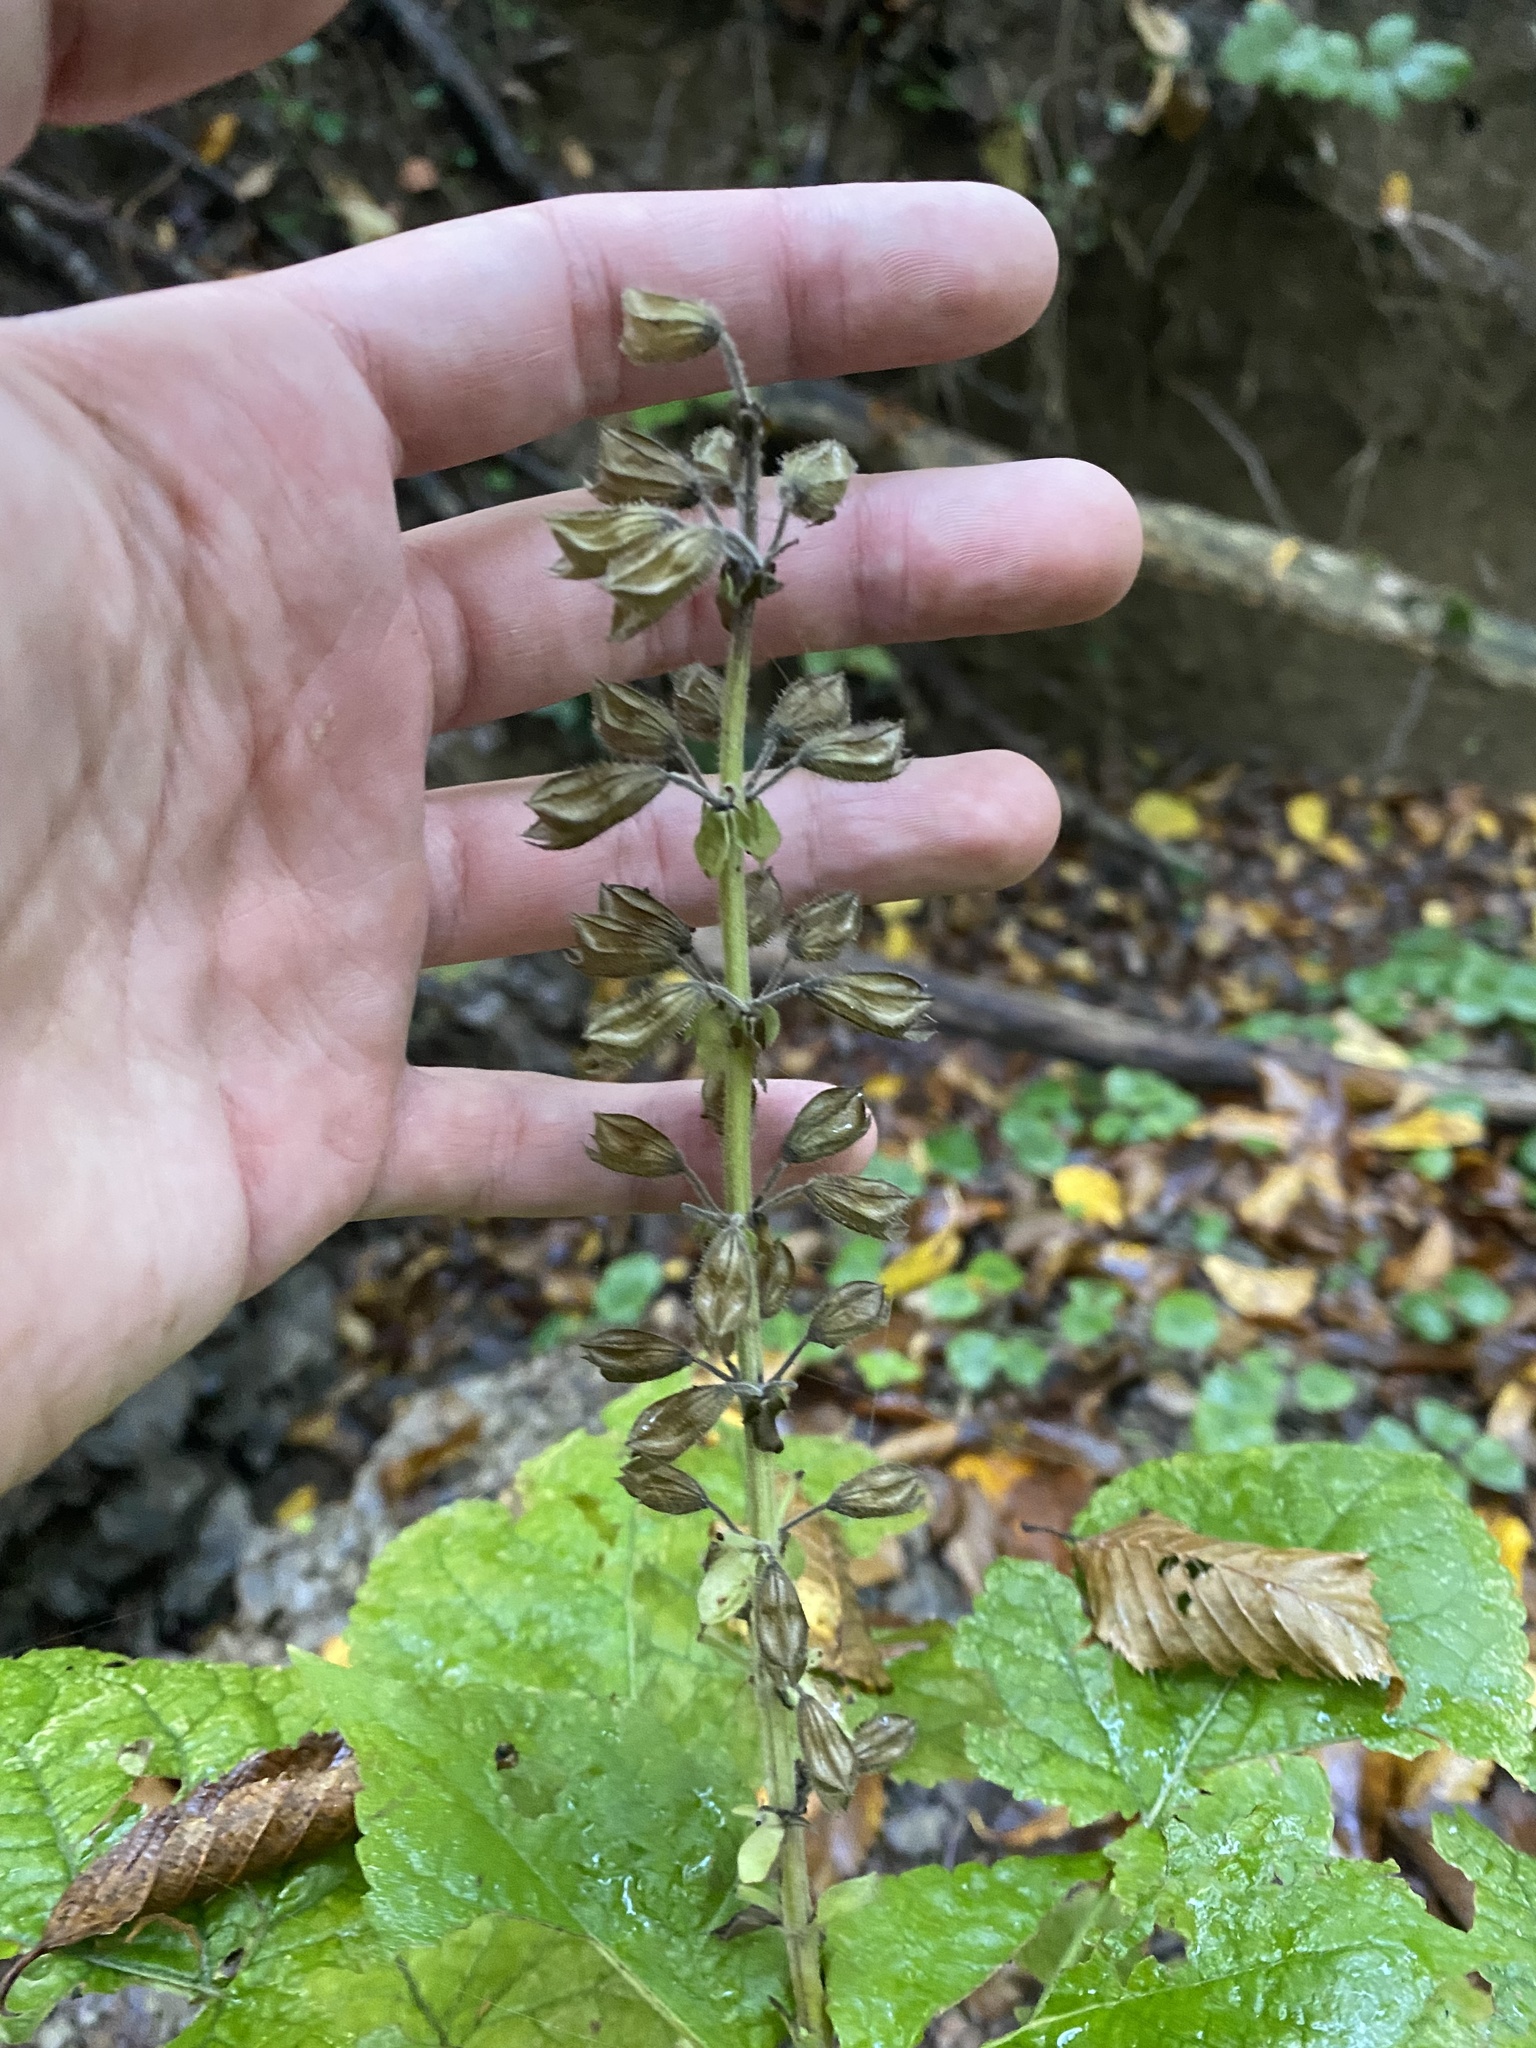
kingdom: Plantae
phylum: Tracheophyta
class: Magnoliopsida
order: Lamiales
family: Lamiaceae
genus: Salvia
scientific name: Salvia glutinosa
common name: Sticky clary
